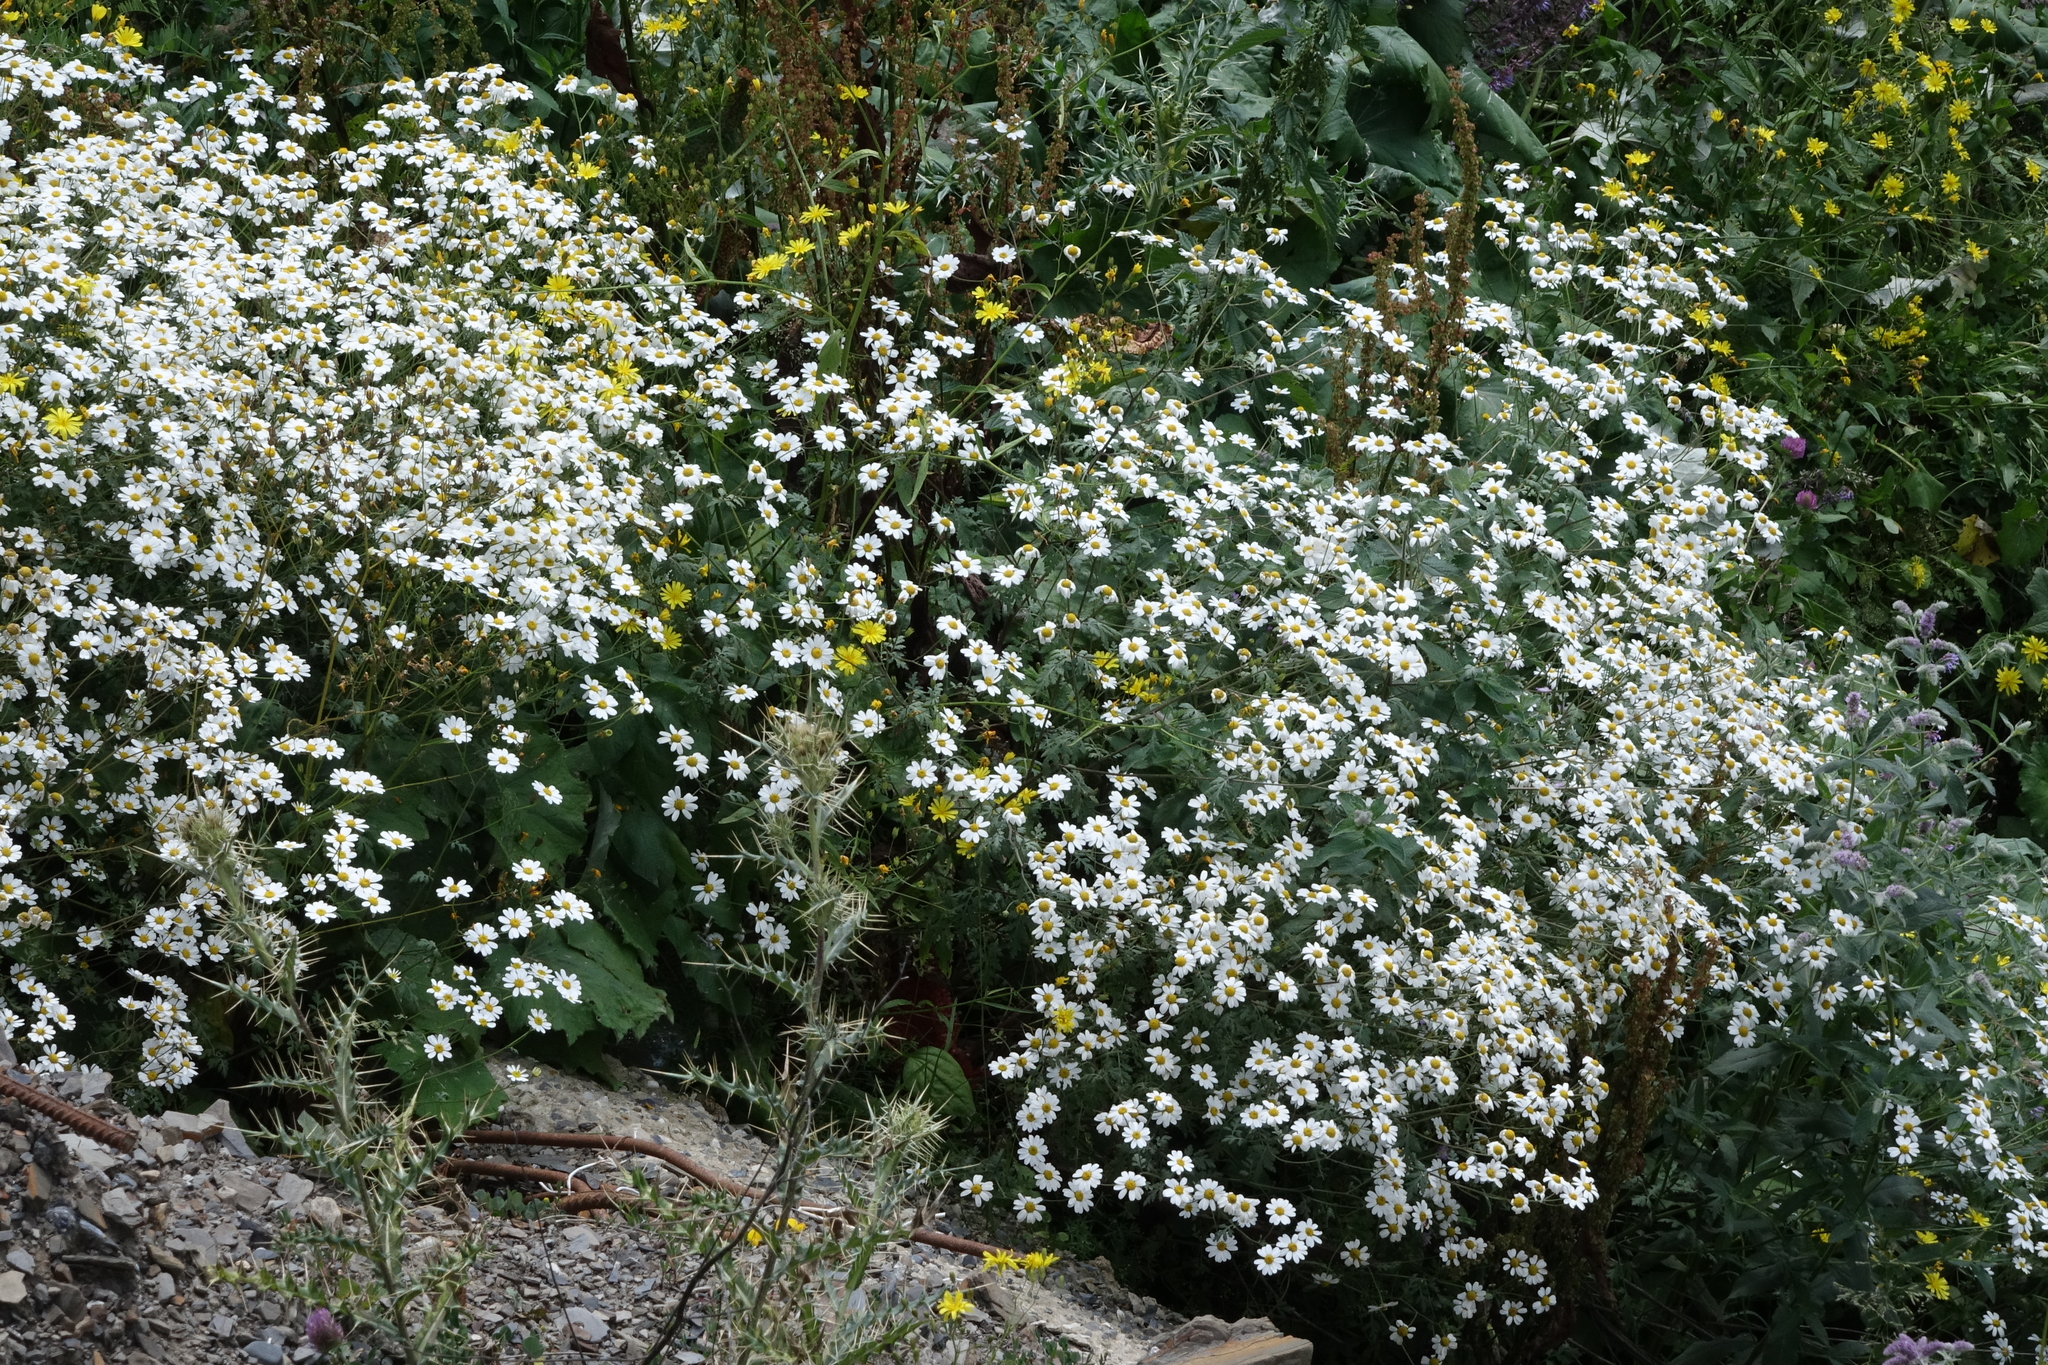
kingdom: Plantae
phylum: Tracheophyta
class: Magnoliopsida
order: Asterales
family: Asteraceae
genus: Tanacetum
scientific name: Tanacetum partheniifolium
